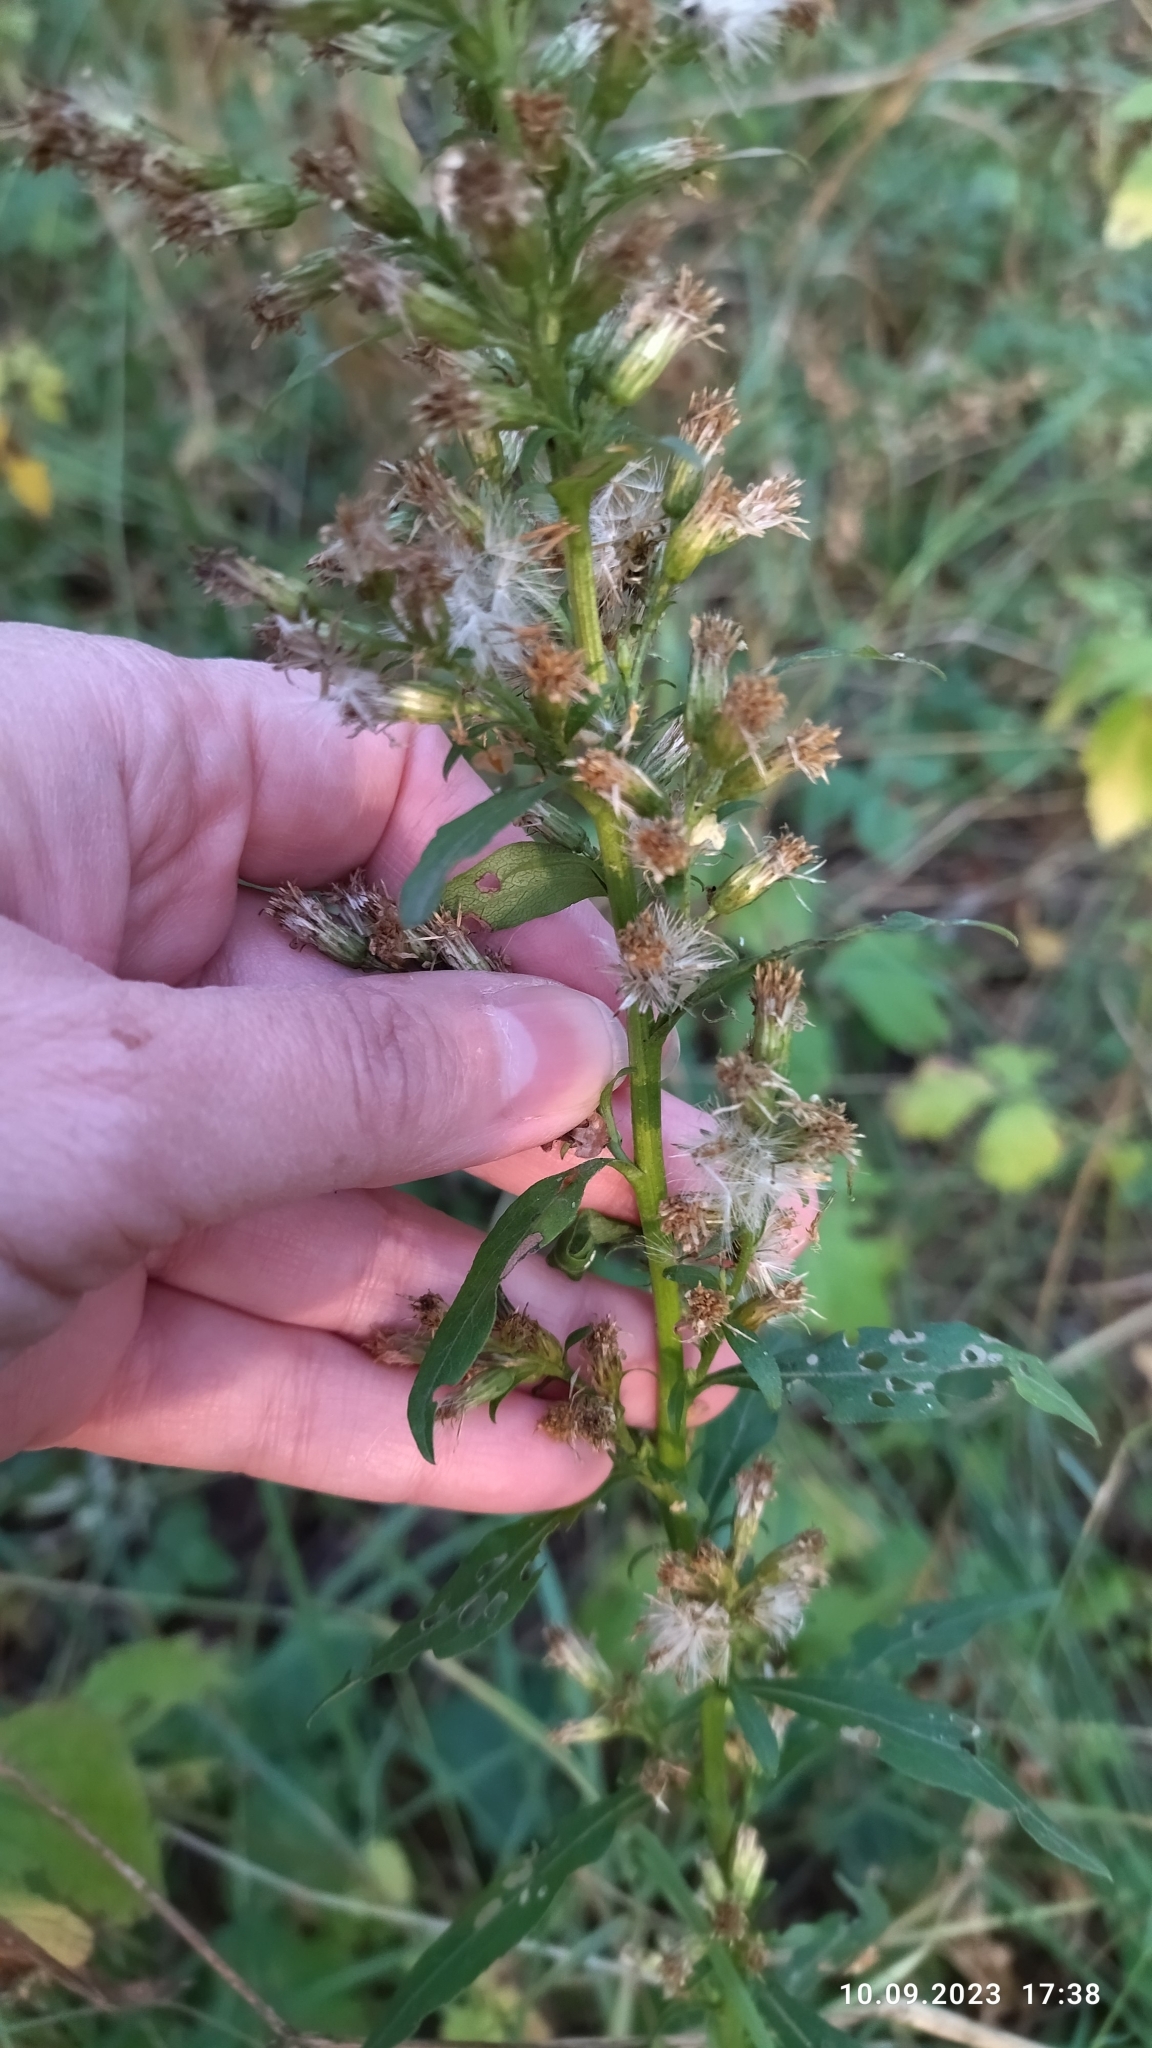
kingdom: Plantae
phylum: Tracheophyta
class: Magnoliopsida
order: Asterales
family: Asteraceae
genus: Solidago
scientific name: Solidago virgaurea
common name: Goldenrod
